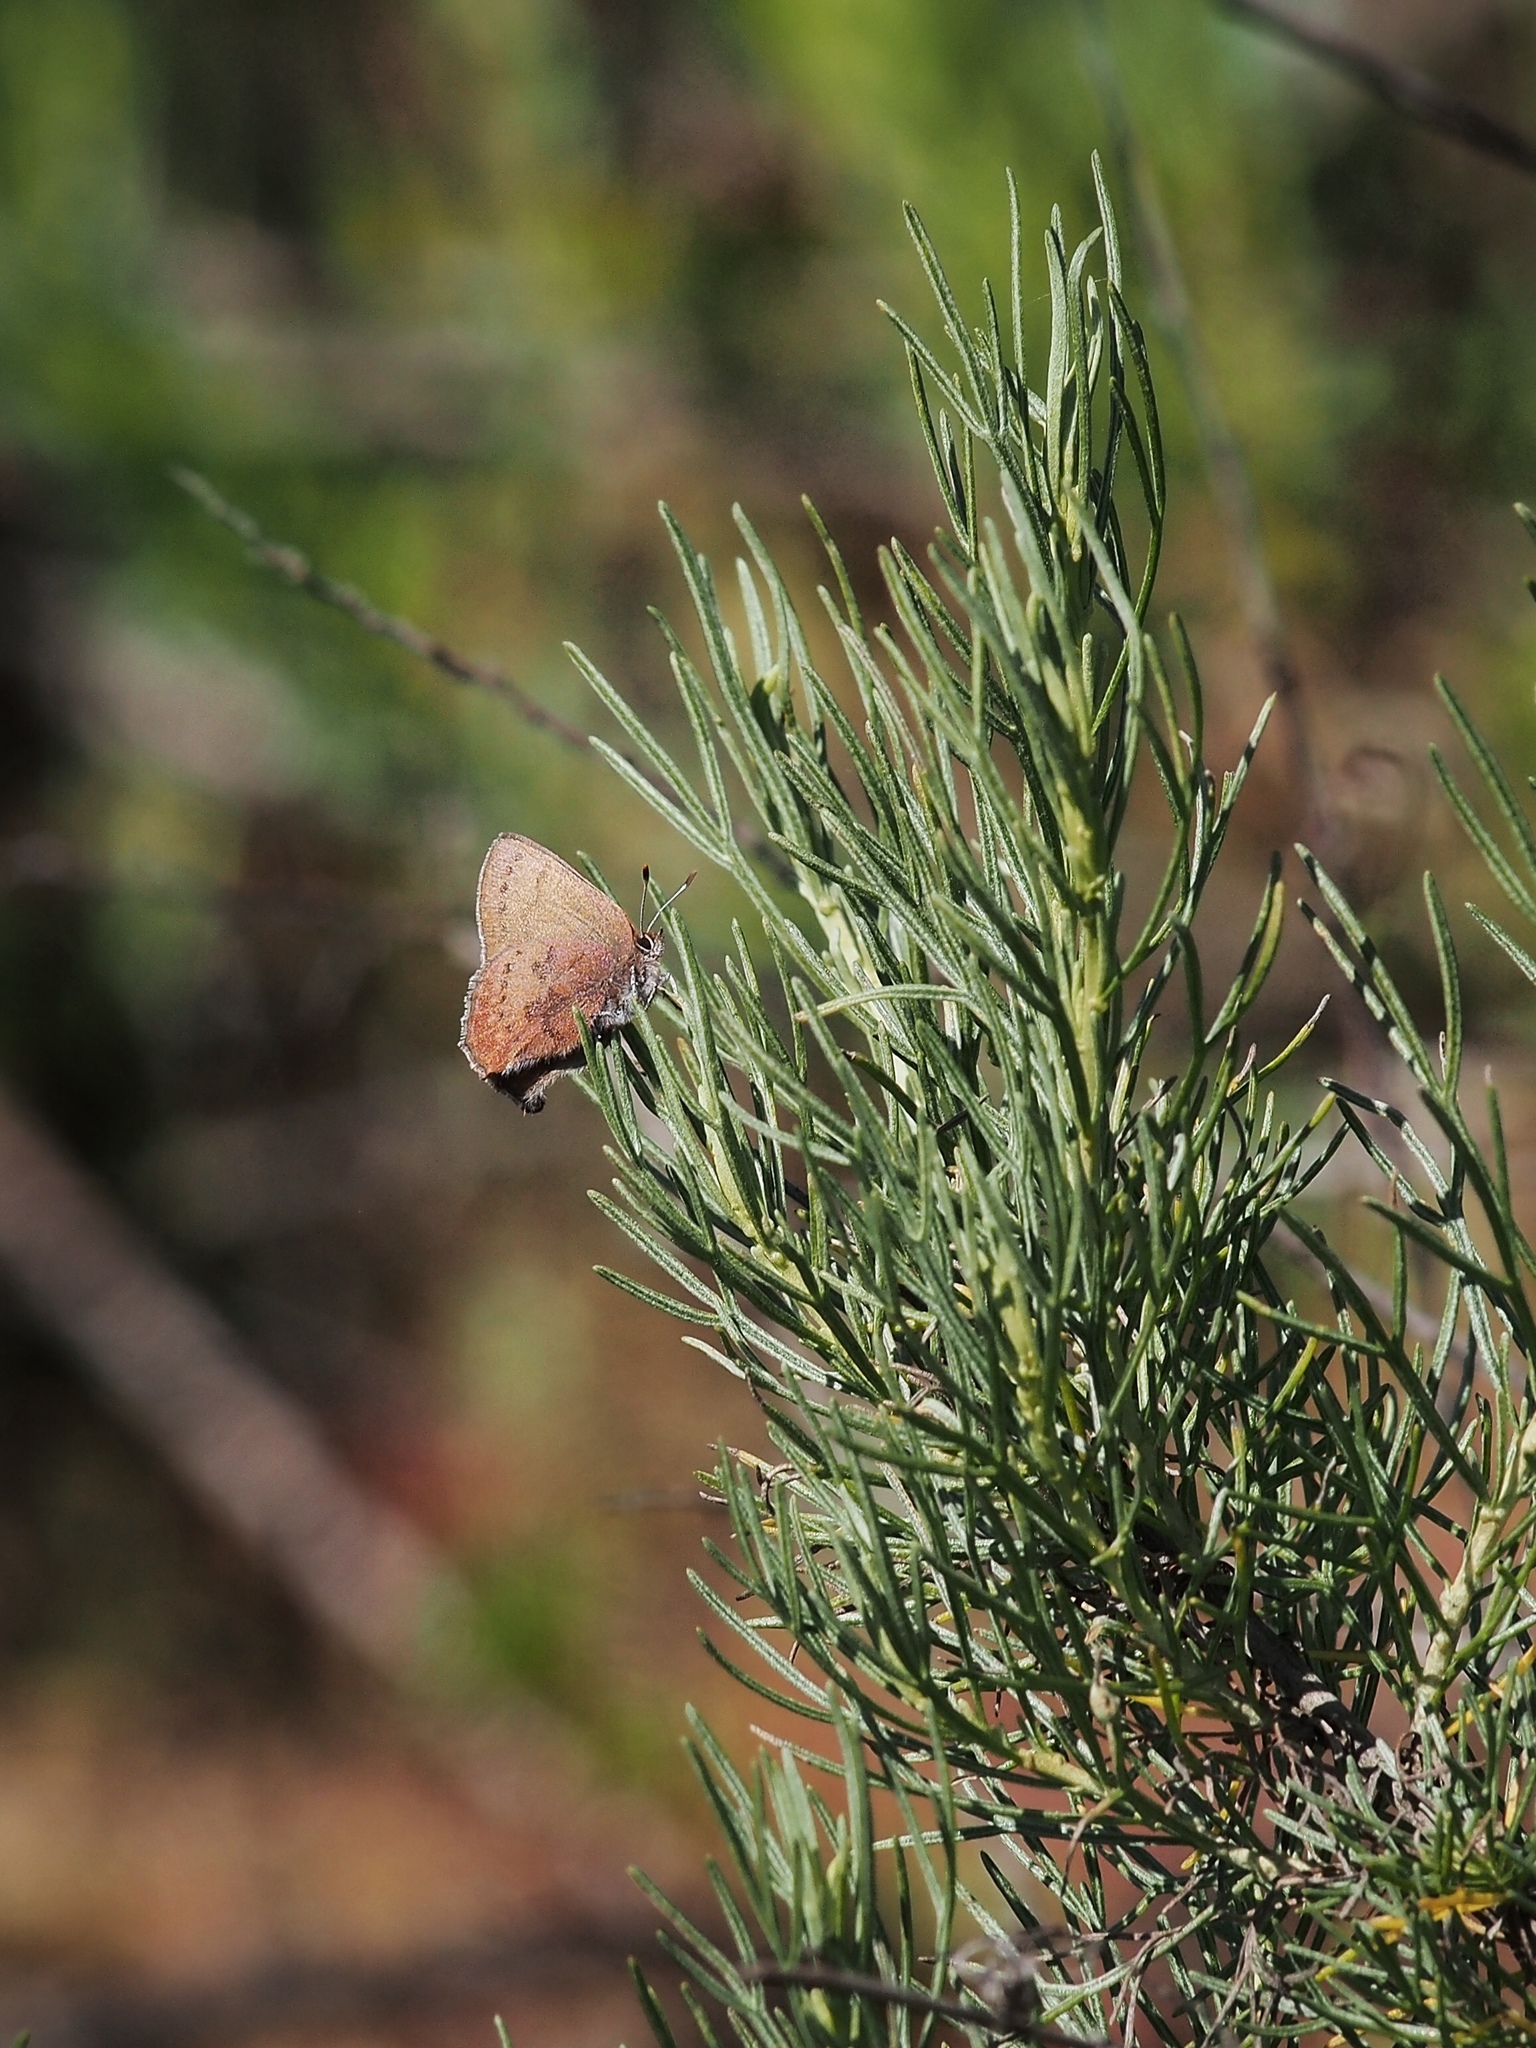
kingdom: Animalia
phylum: Arthropoda
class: Insecta
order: Lepidoptera
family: Lycaenidae
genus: Incisalia
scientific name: Incisalia irioides
